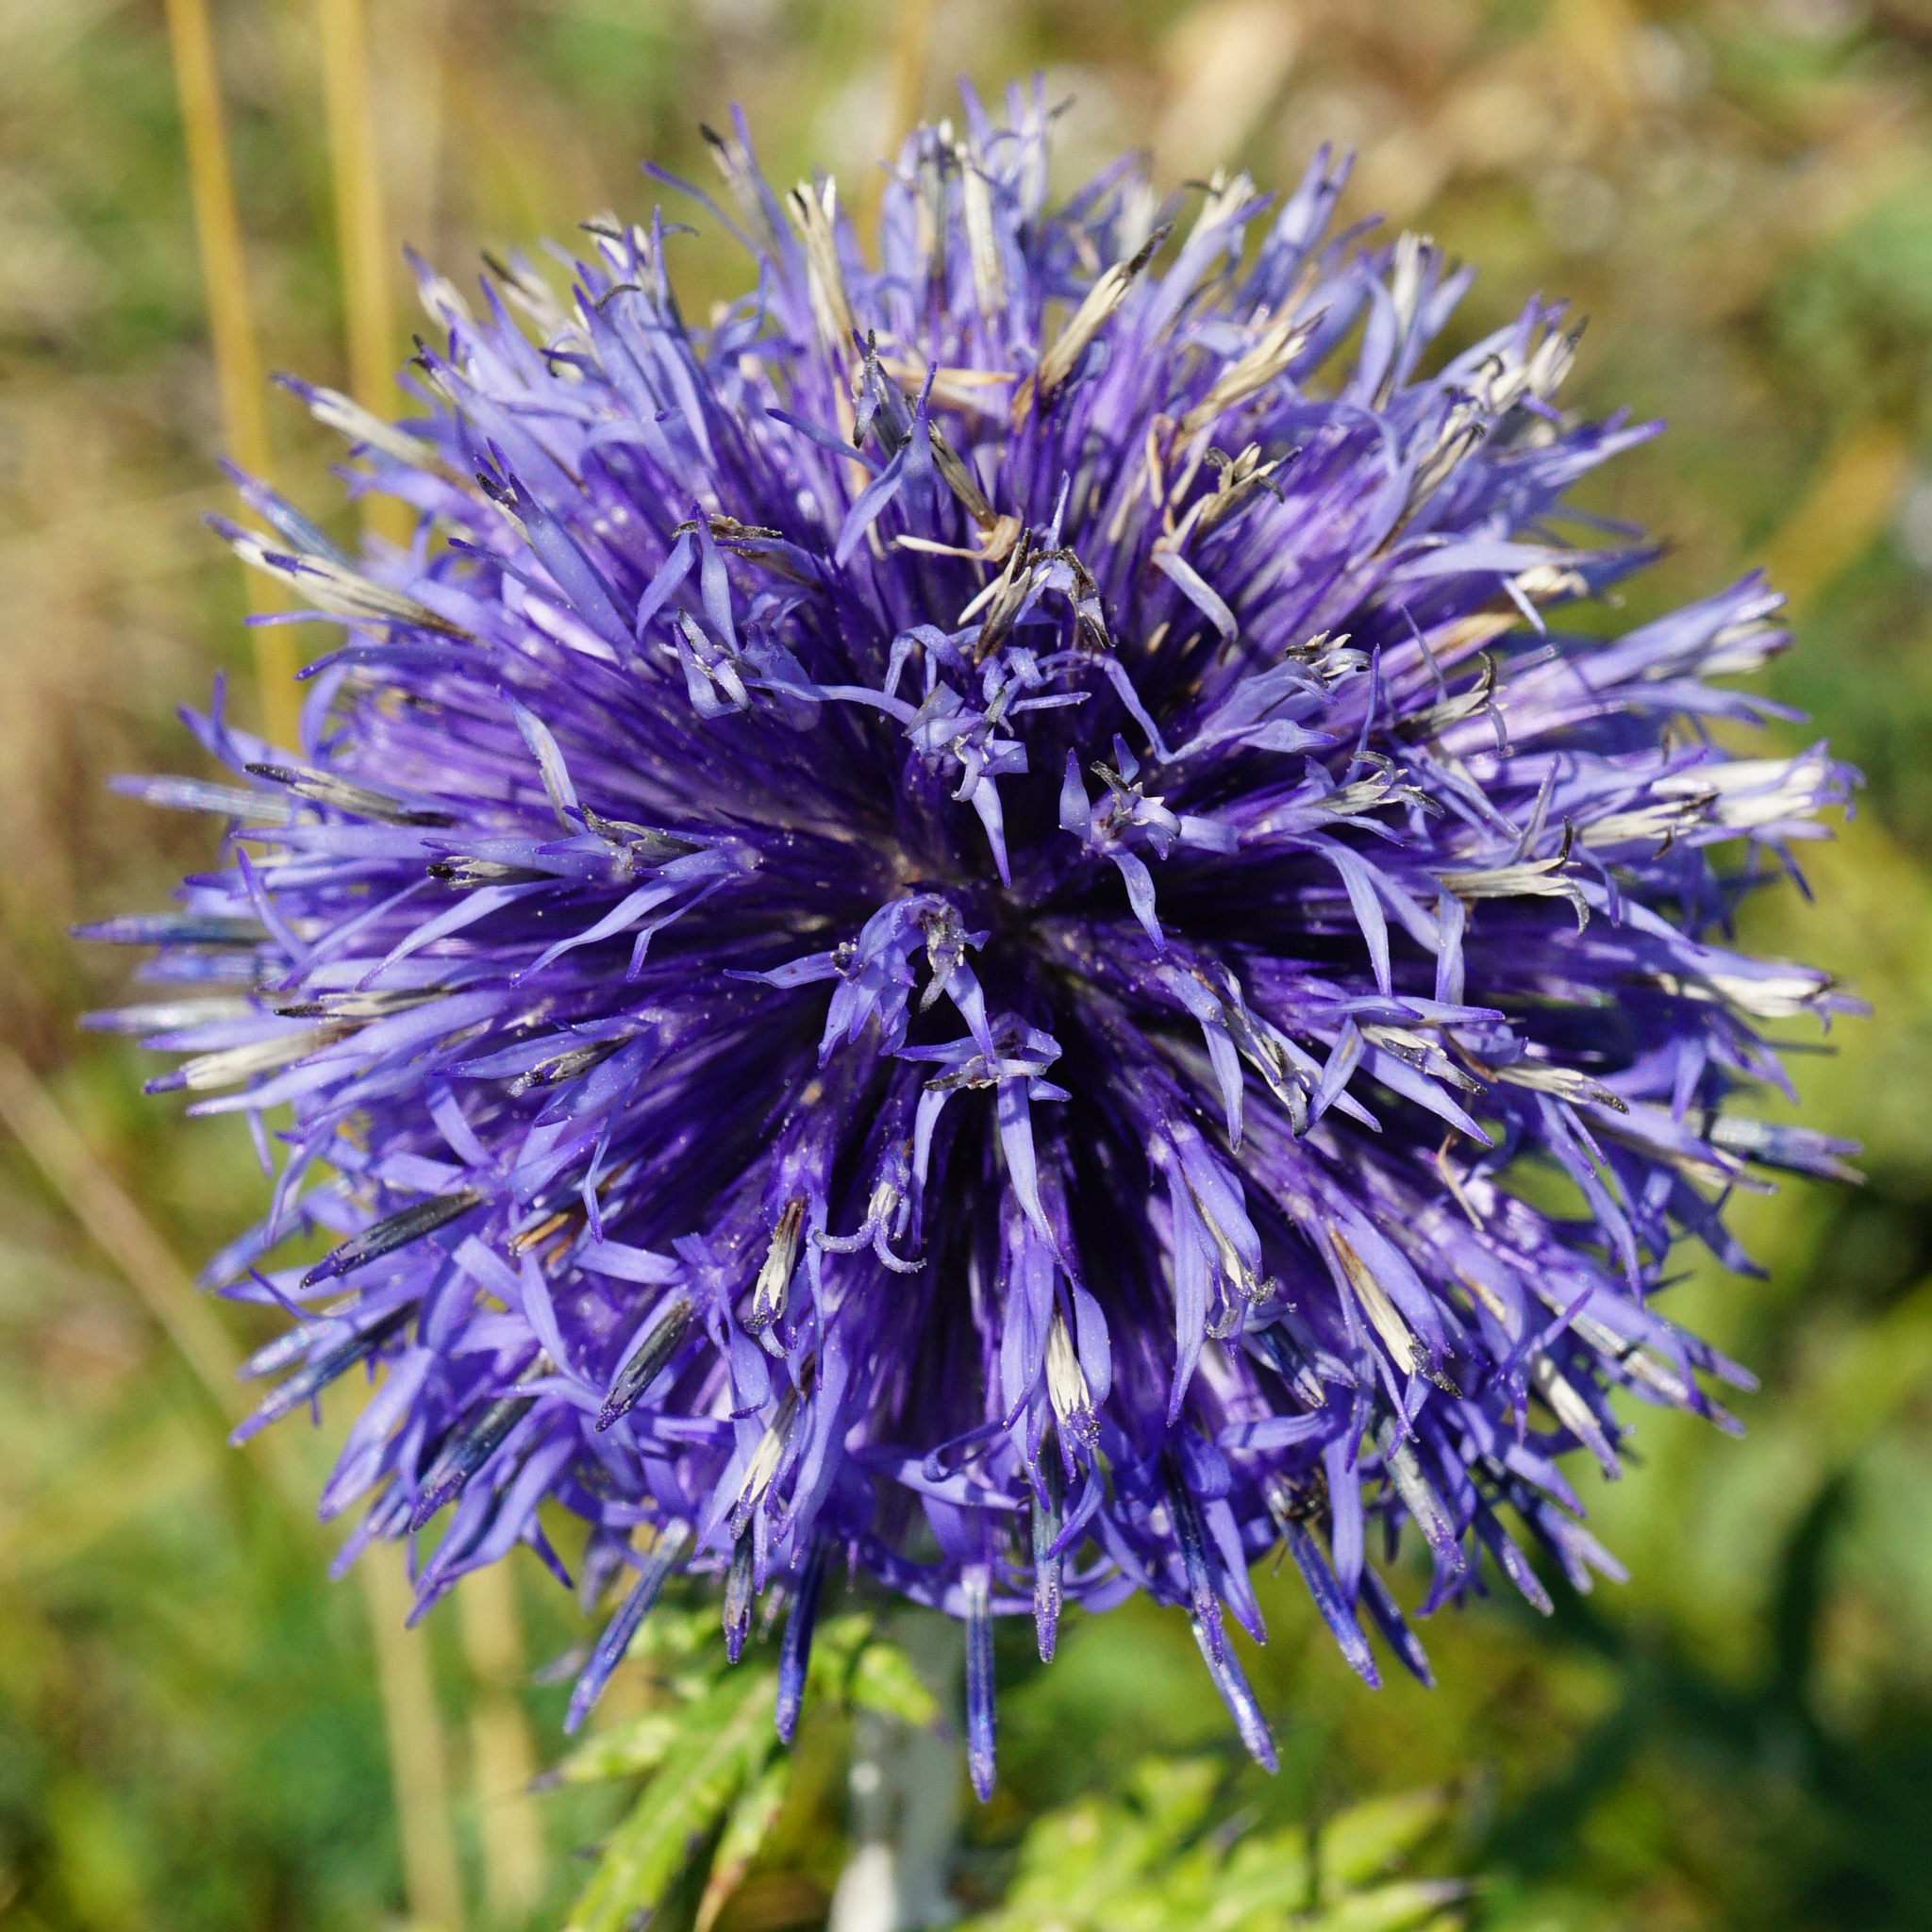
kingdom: Plantae
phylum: Tracheophyta
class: Magnoliopsida
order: Asterales
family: Asteraceae
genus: Echinops
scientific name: Echinops ritro
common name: Globe thistle
